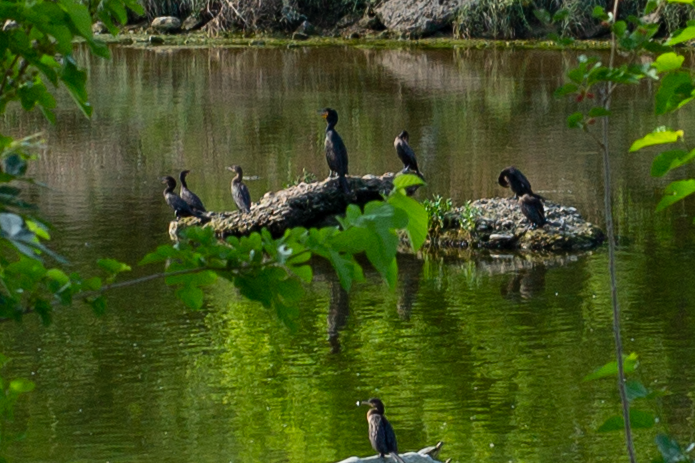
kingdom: Animalia
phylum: Chordata
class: Aves
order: Suliformes
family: Phalacrocoracidae
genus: Phalacrocorax
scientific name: Phalacrocorax auritus
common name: Double-crested cormorant
